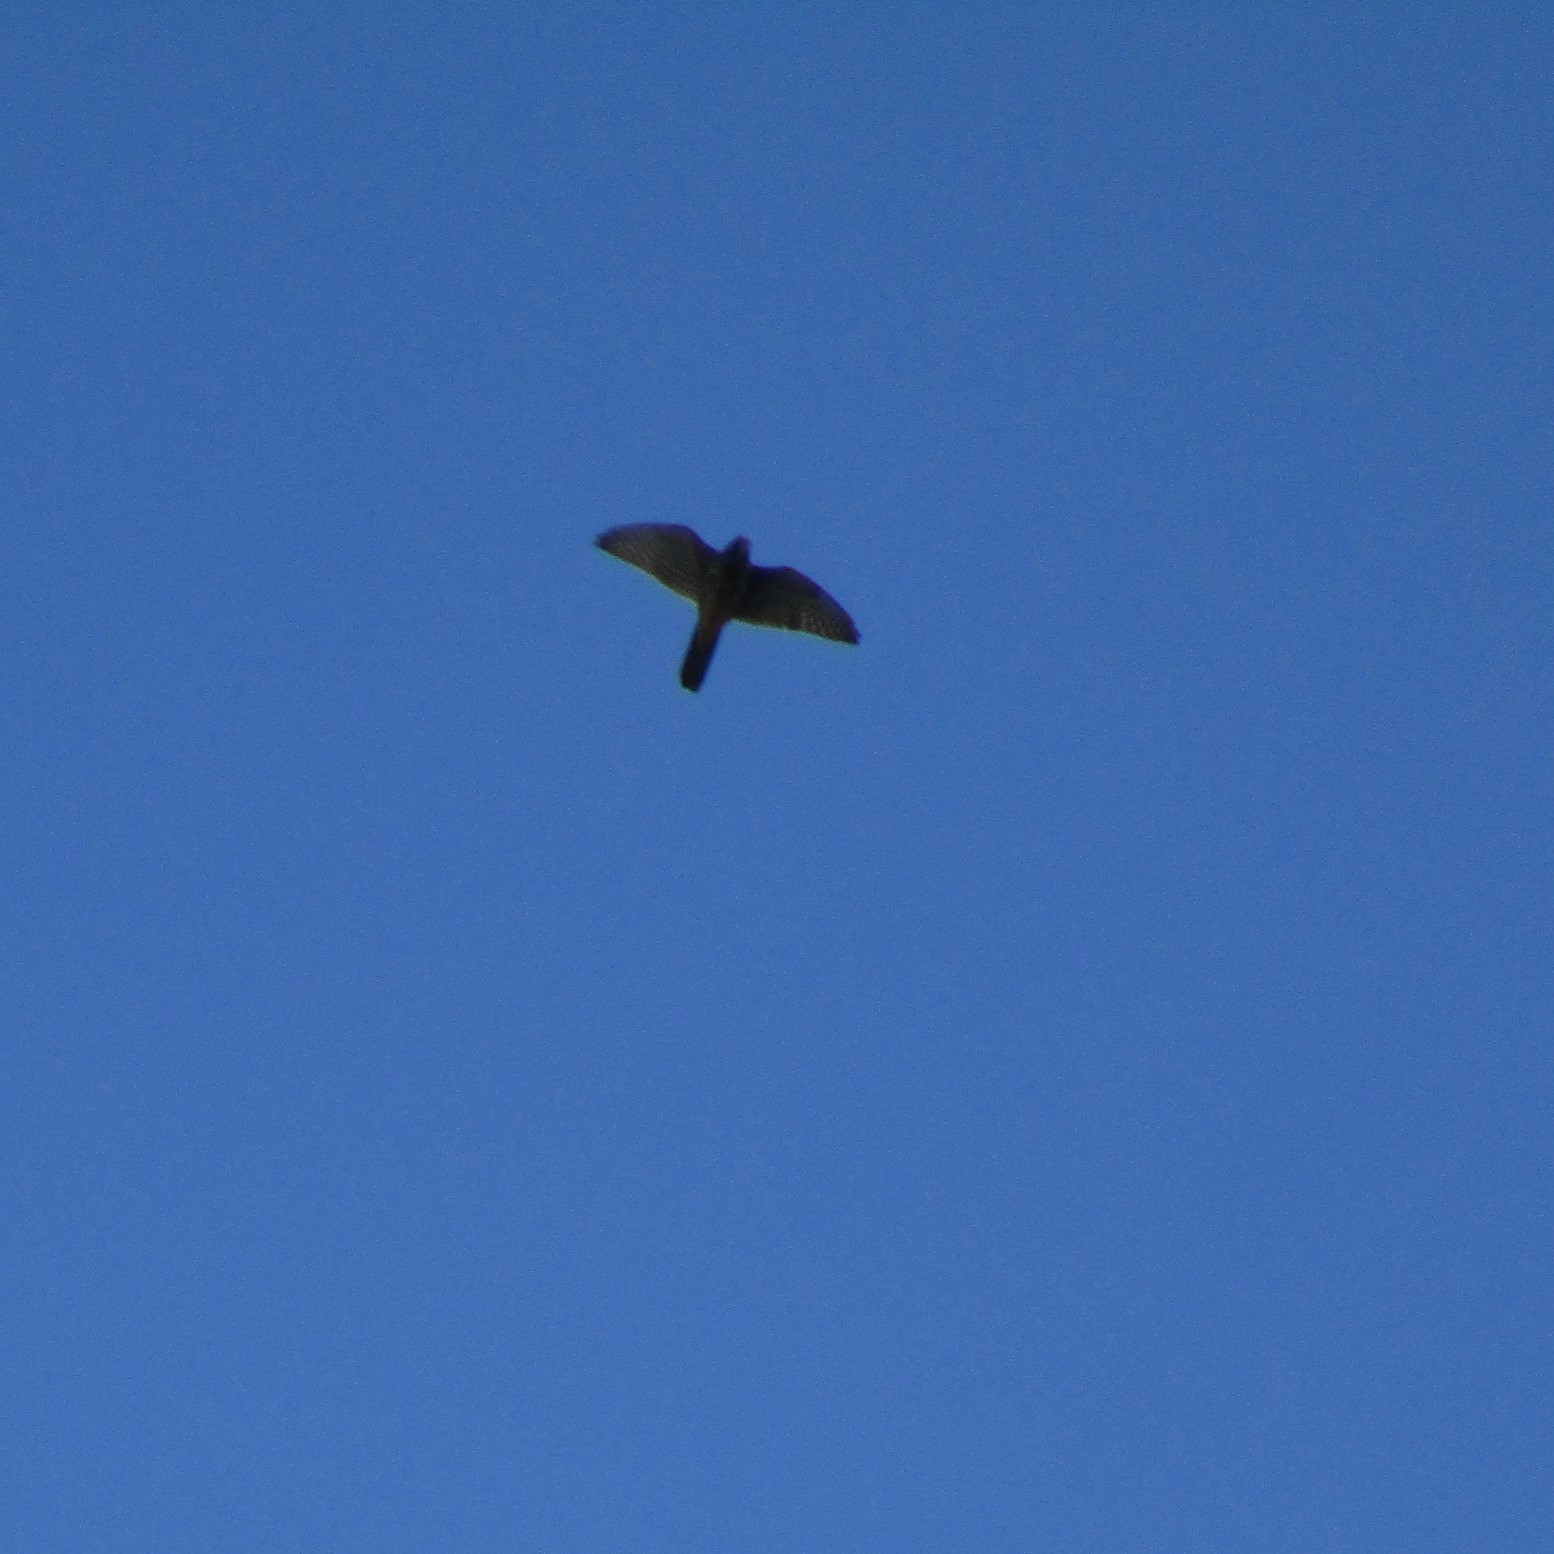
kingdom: Animalia
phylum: Chordata
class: Aves
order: Falconiformes
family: Falconidae
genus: Falco
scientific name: Falco novaeseelandiae
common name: New zealand falcon
